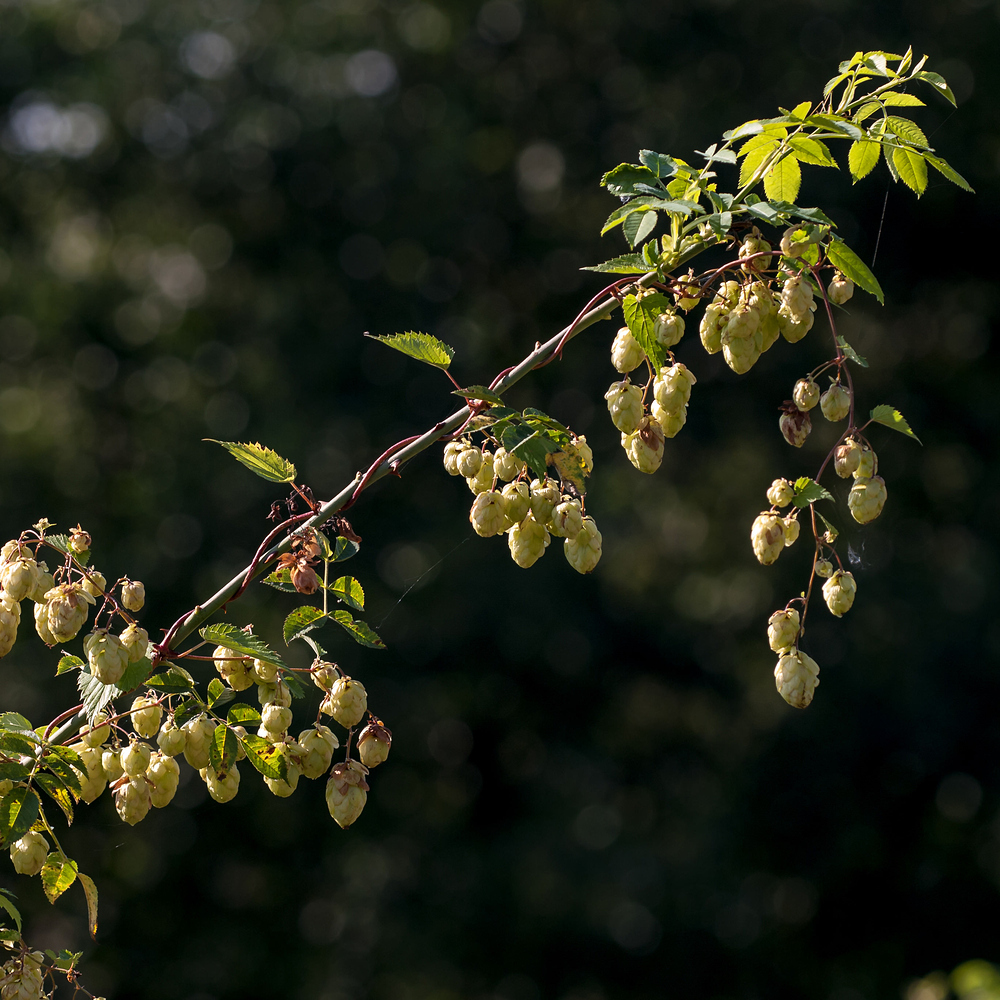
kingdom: Plantae
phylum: Tracheophyta
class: Magnoliopsida
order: Rosales
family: Cannabaceae
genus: Humulus
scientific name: Humulus lupulus
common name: Hop
